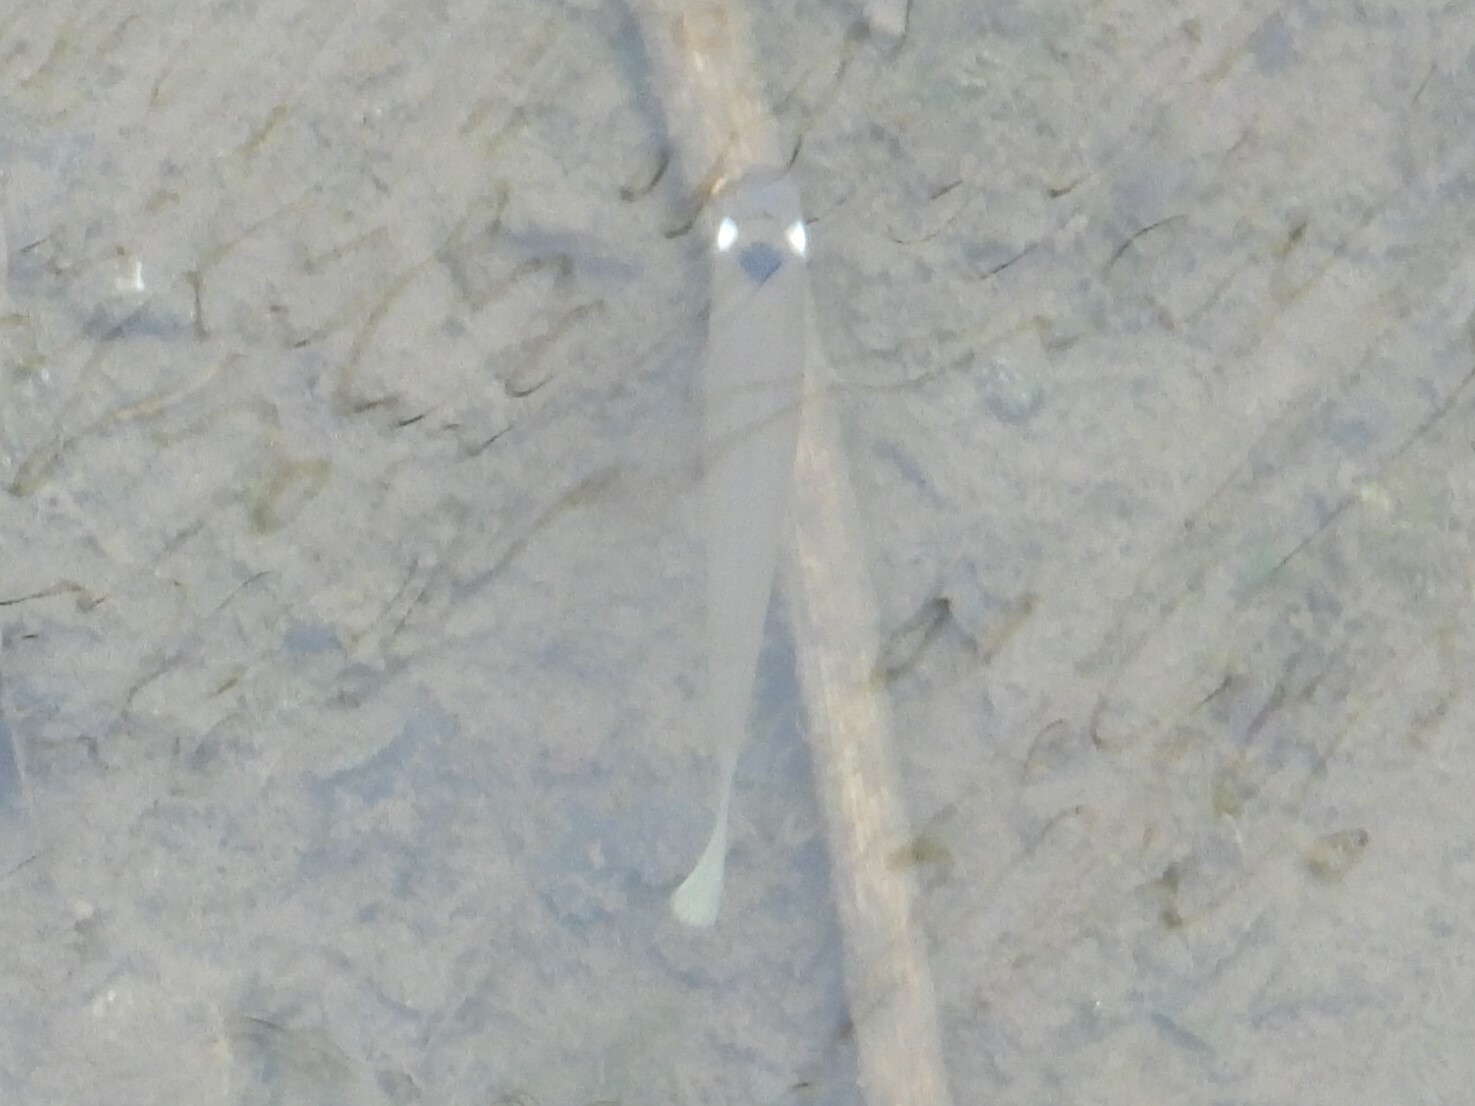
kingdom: Animalia
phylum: Chordata
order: Cyprinodontiformes
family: Anablepidae
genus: Oxyzygonectes
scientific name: Oxyzygonectes dovii
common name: White-eye
